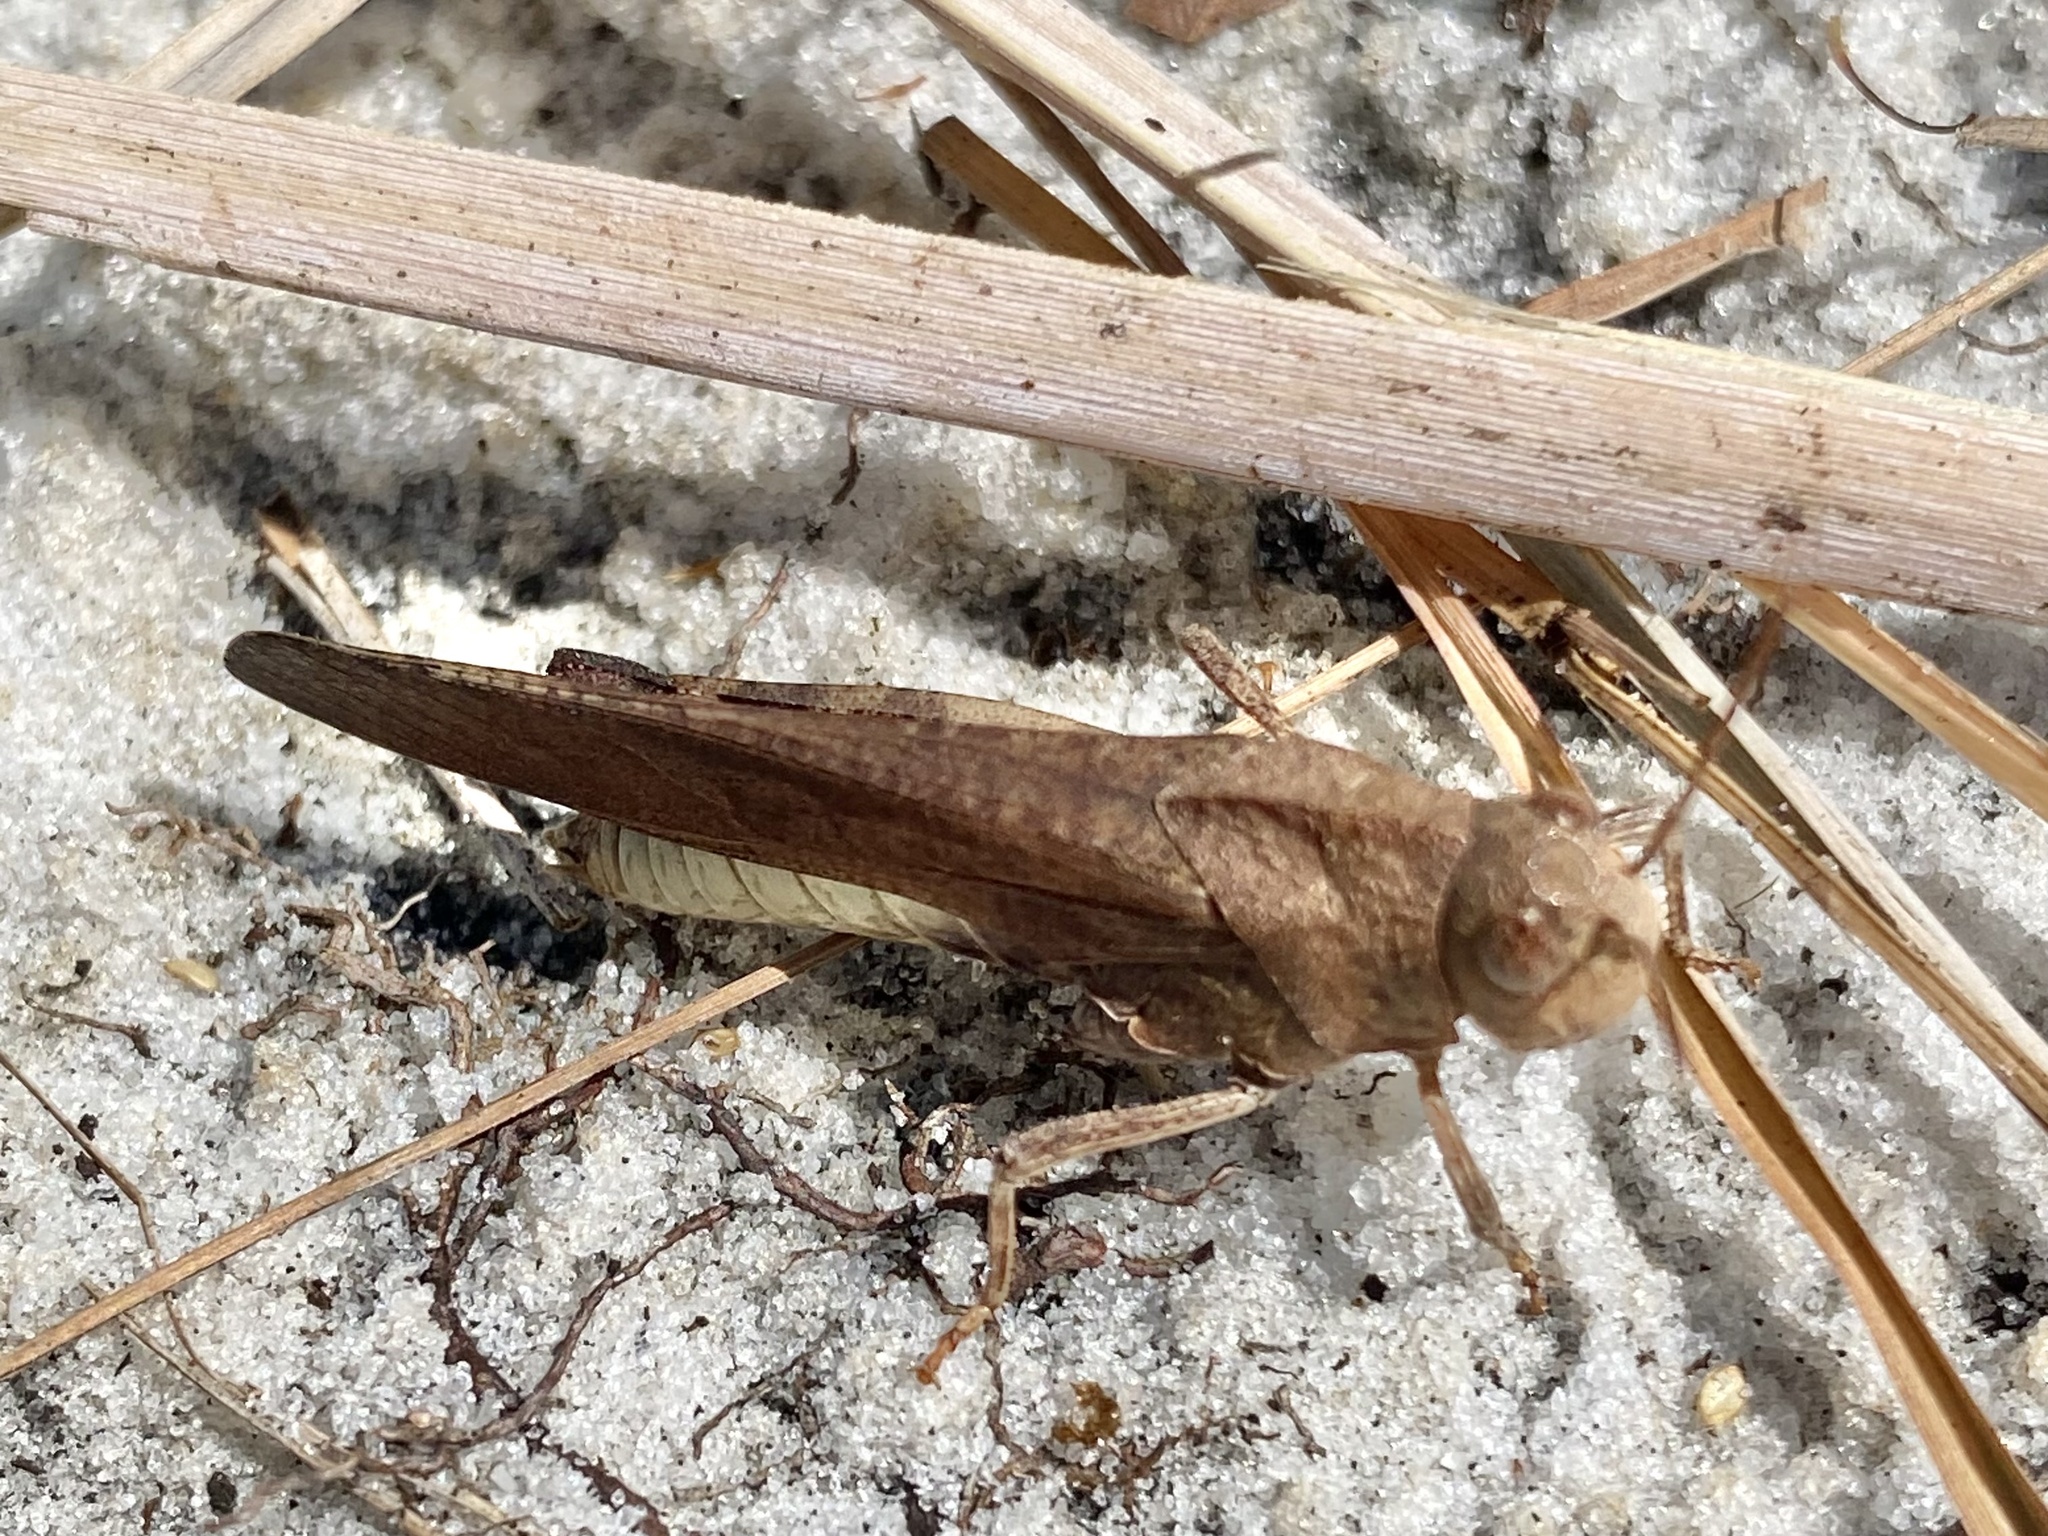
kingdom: Animalia
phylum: Arthropoda
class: Insecta
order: Orthoptera
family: Acrididae
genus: Arphia
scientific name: Arphia granulata
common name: Southern yellow-winged grasshopper
